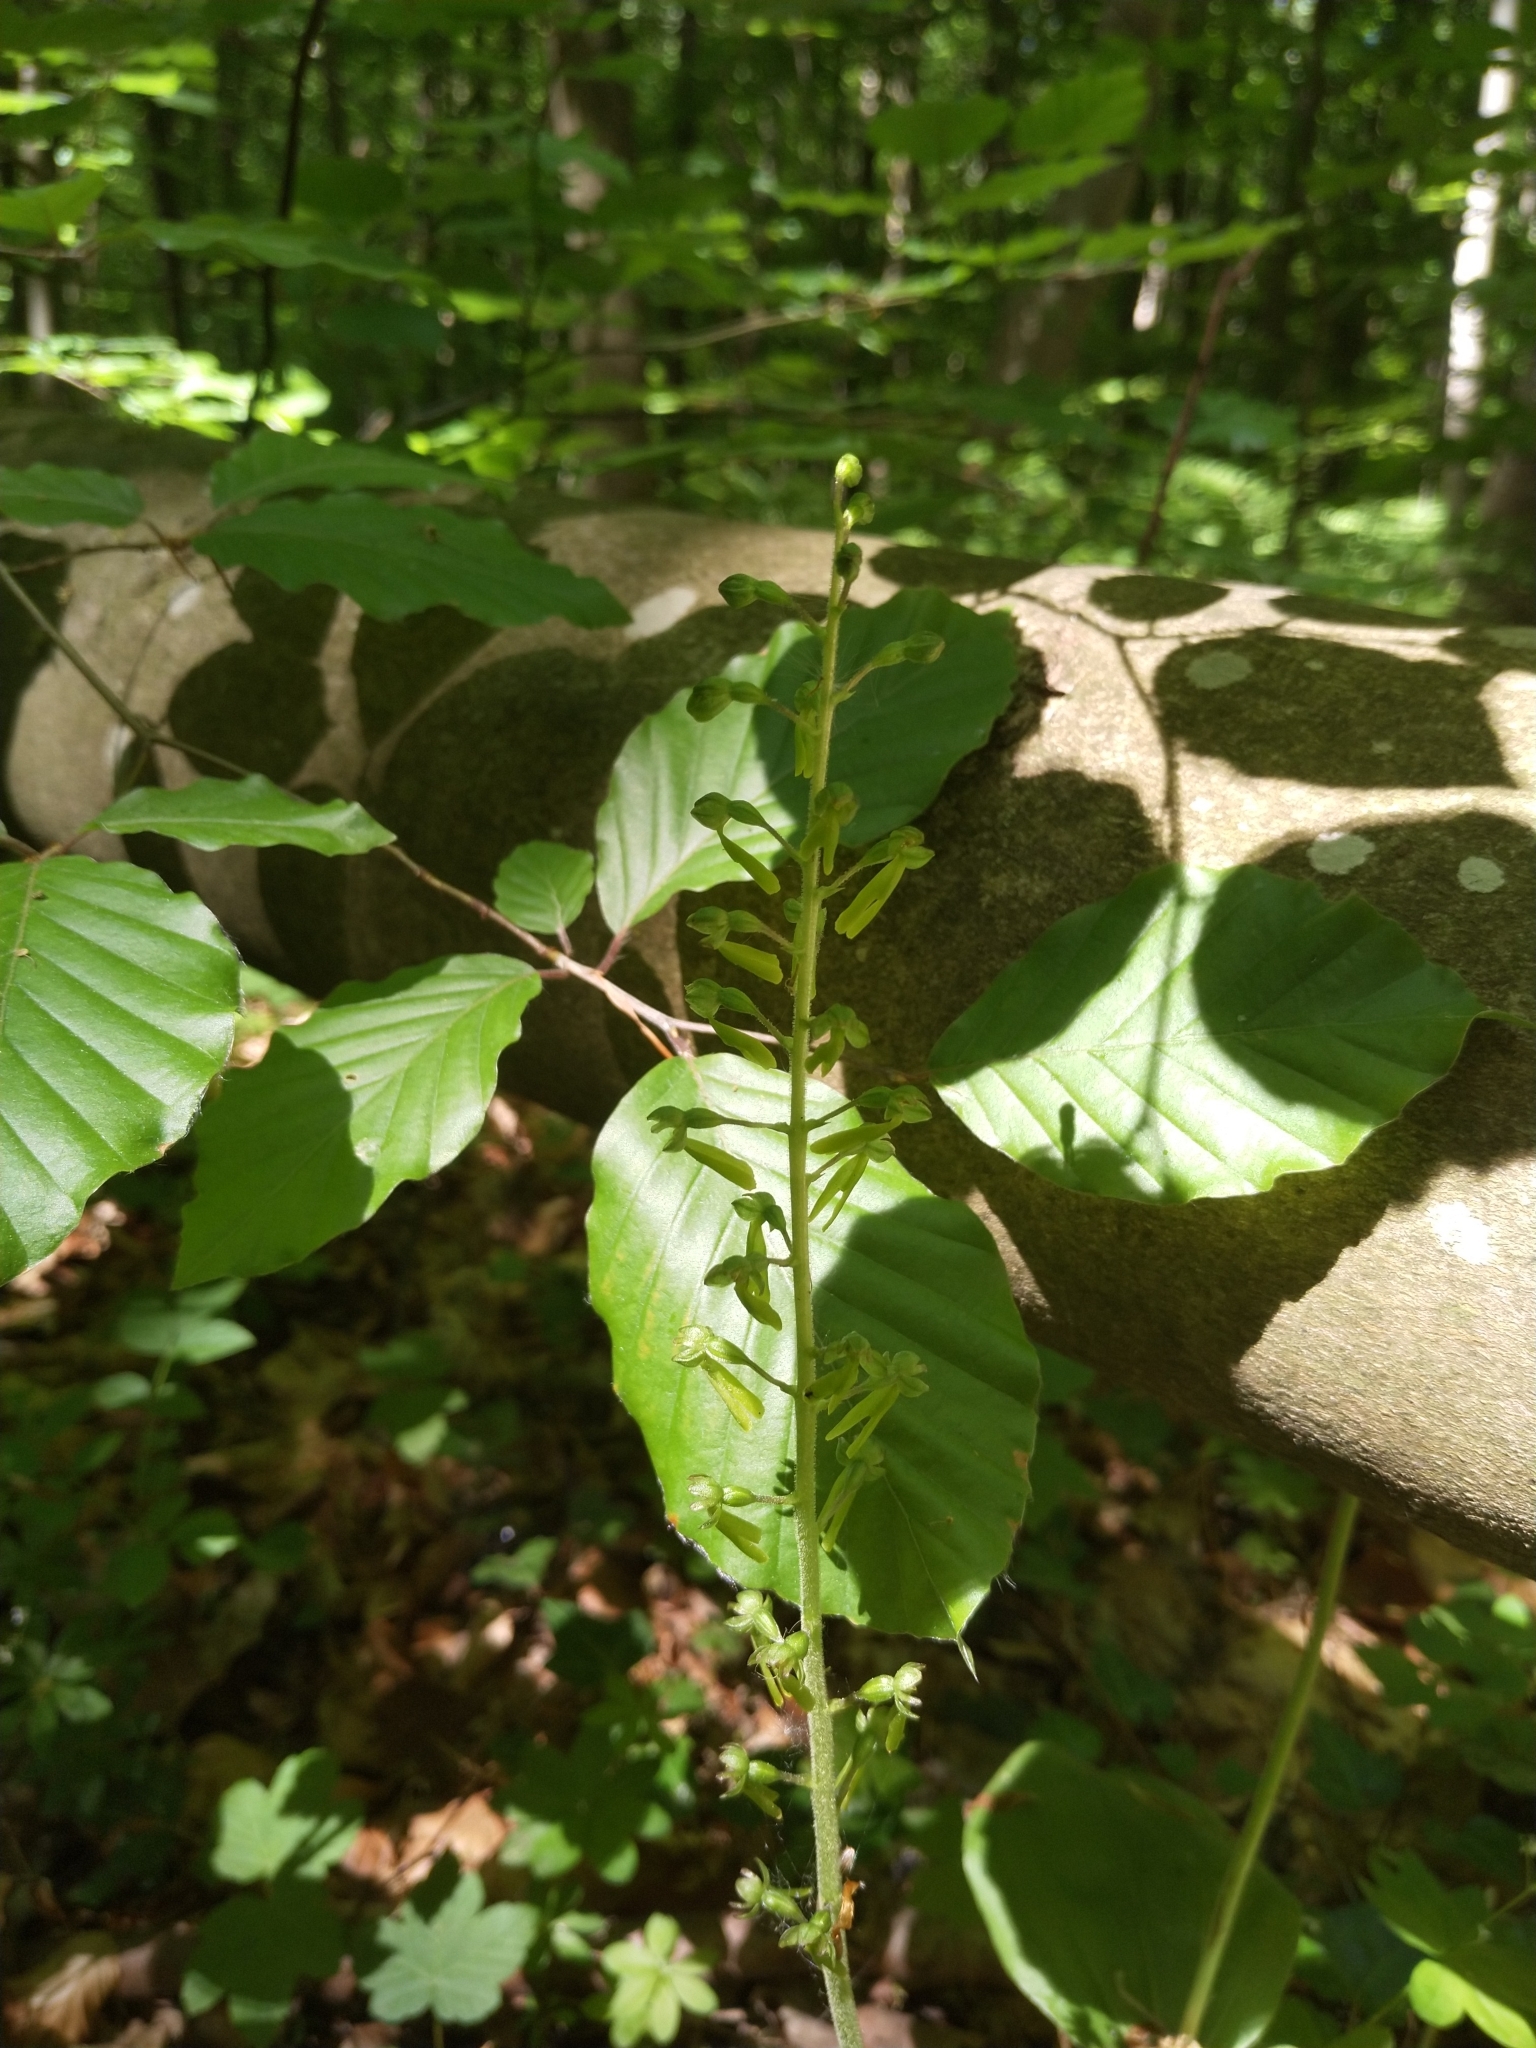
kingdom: Plantae
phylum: Tracheophyta
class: Liliopsida
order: Asparagales
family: Orchidaceae
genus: Neottia
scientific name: Neottia ovata
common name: Common twayblade
